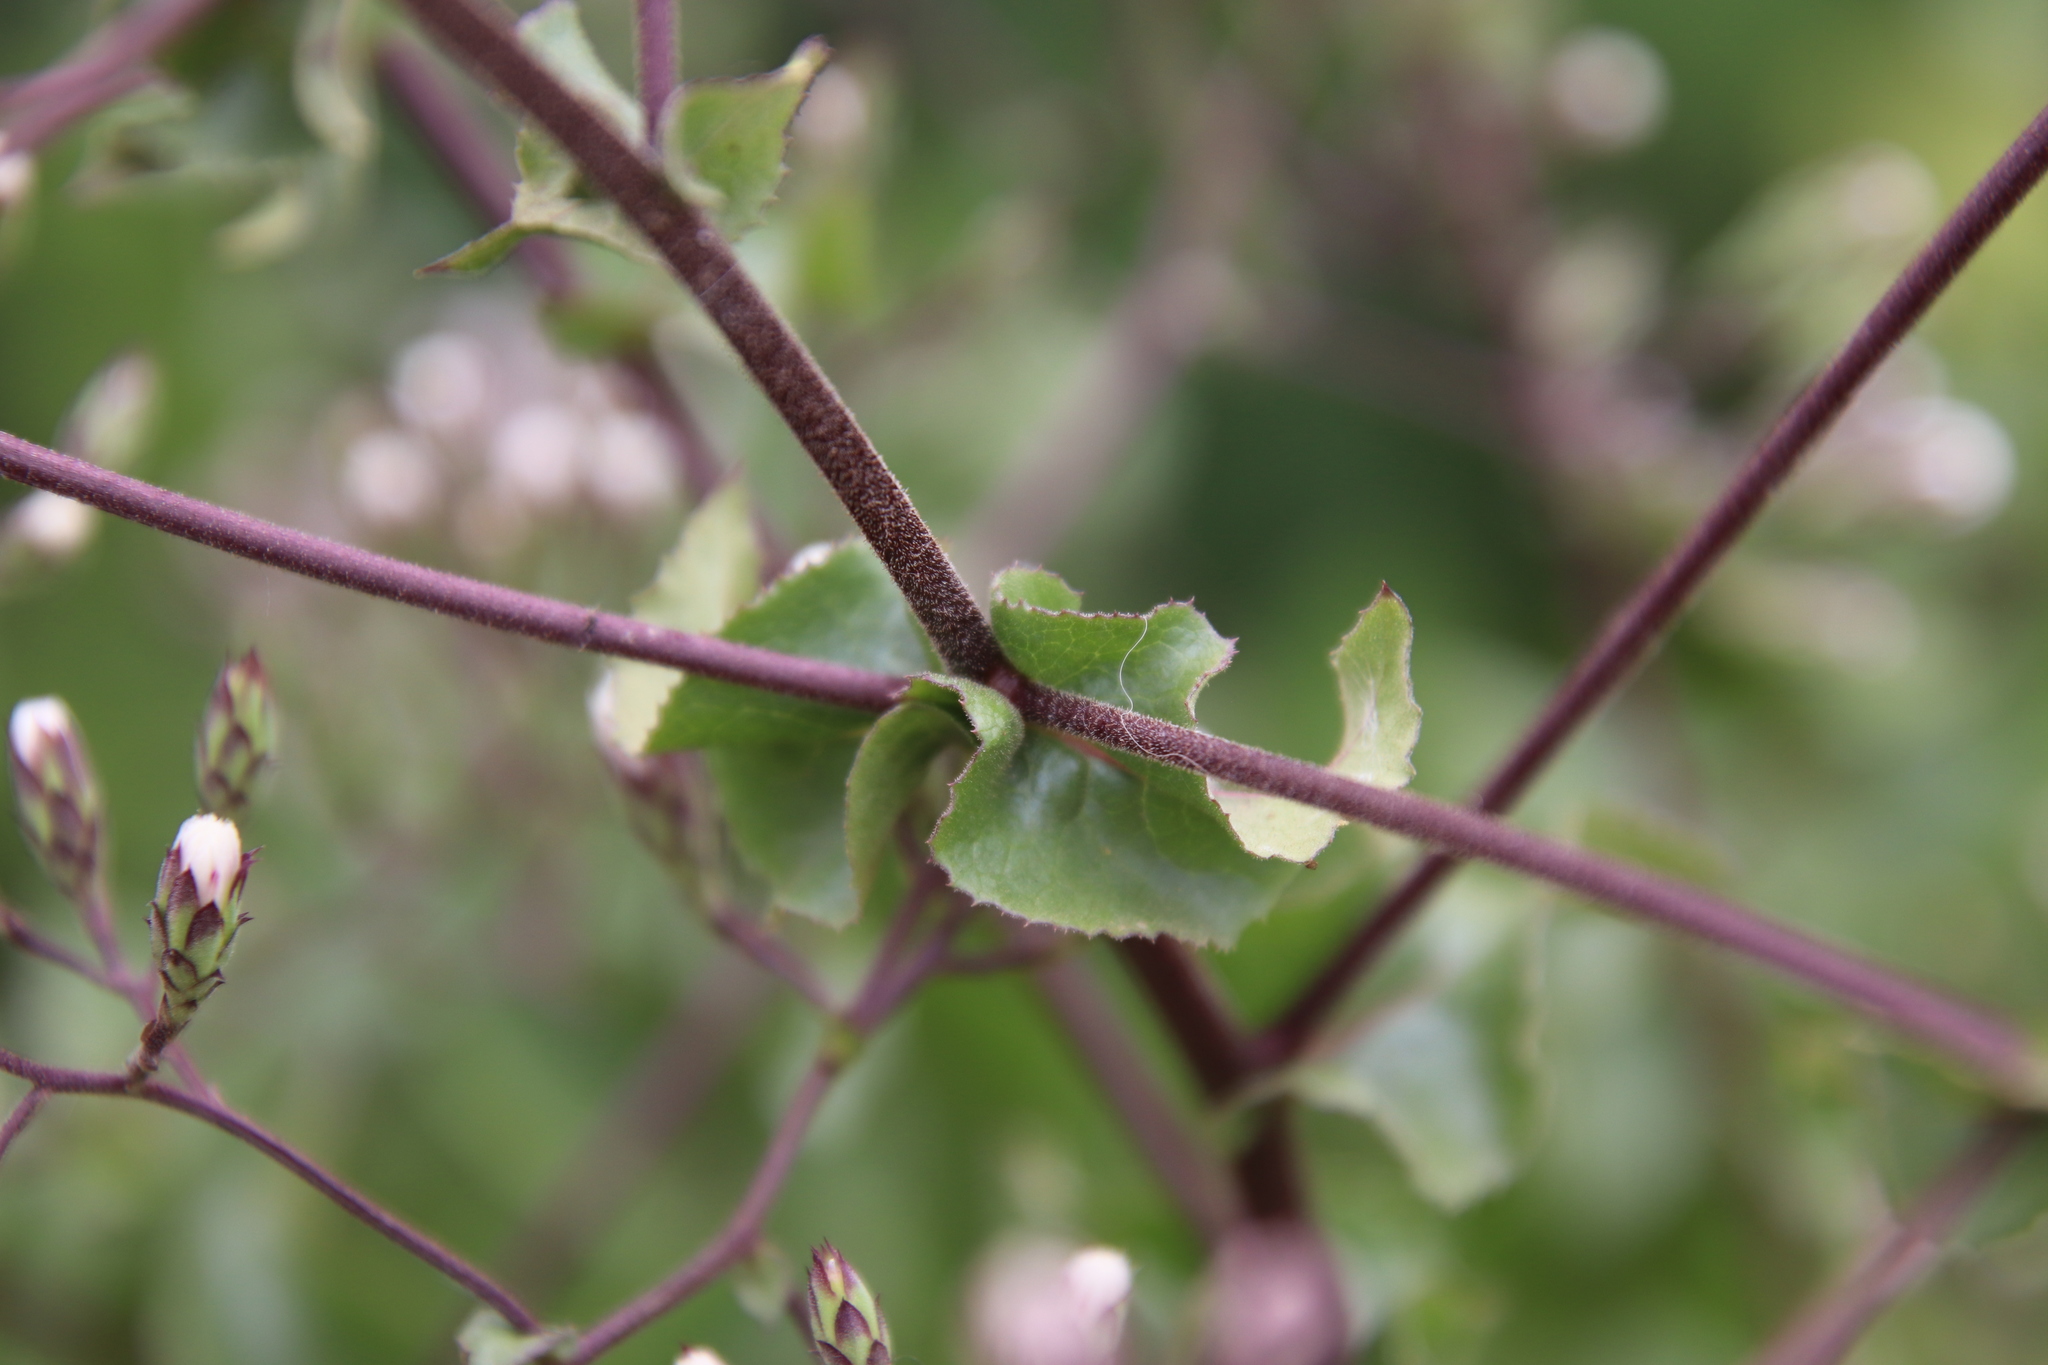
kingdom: Plantae
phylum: Tracheophyta
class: Magnoliopsida
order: Asterales
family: Asteraceae
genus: Acourtia
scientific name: Acourtia microcephala
